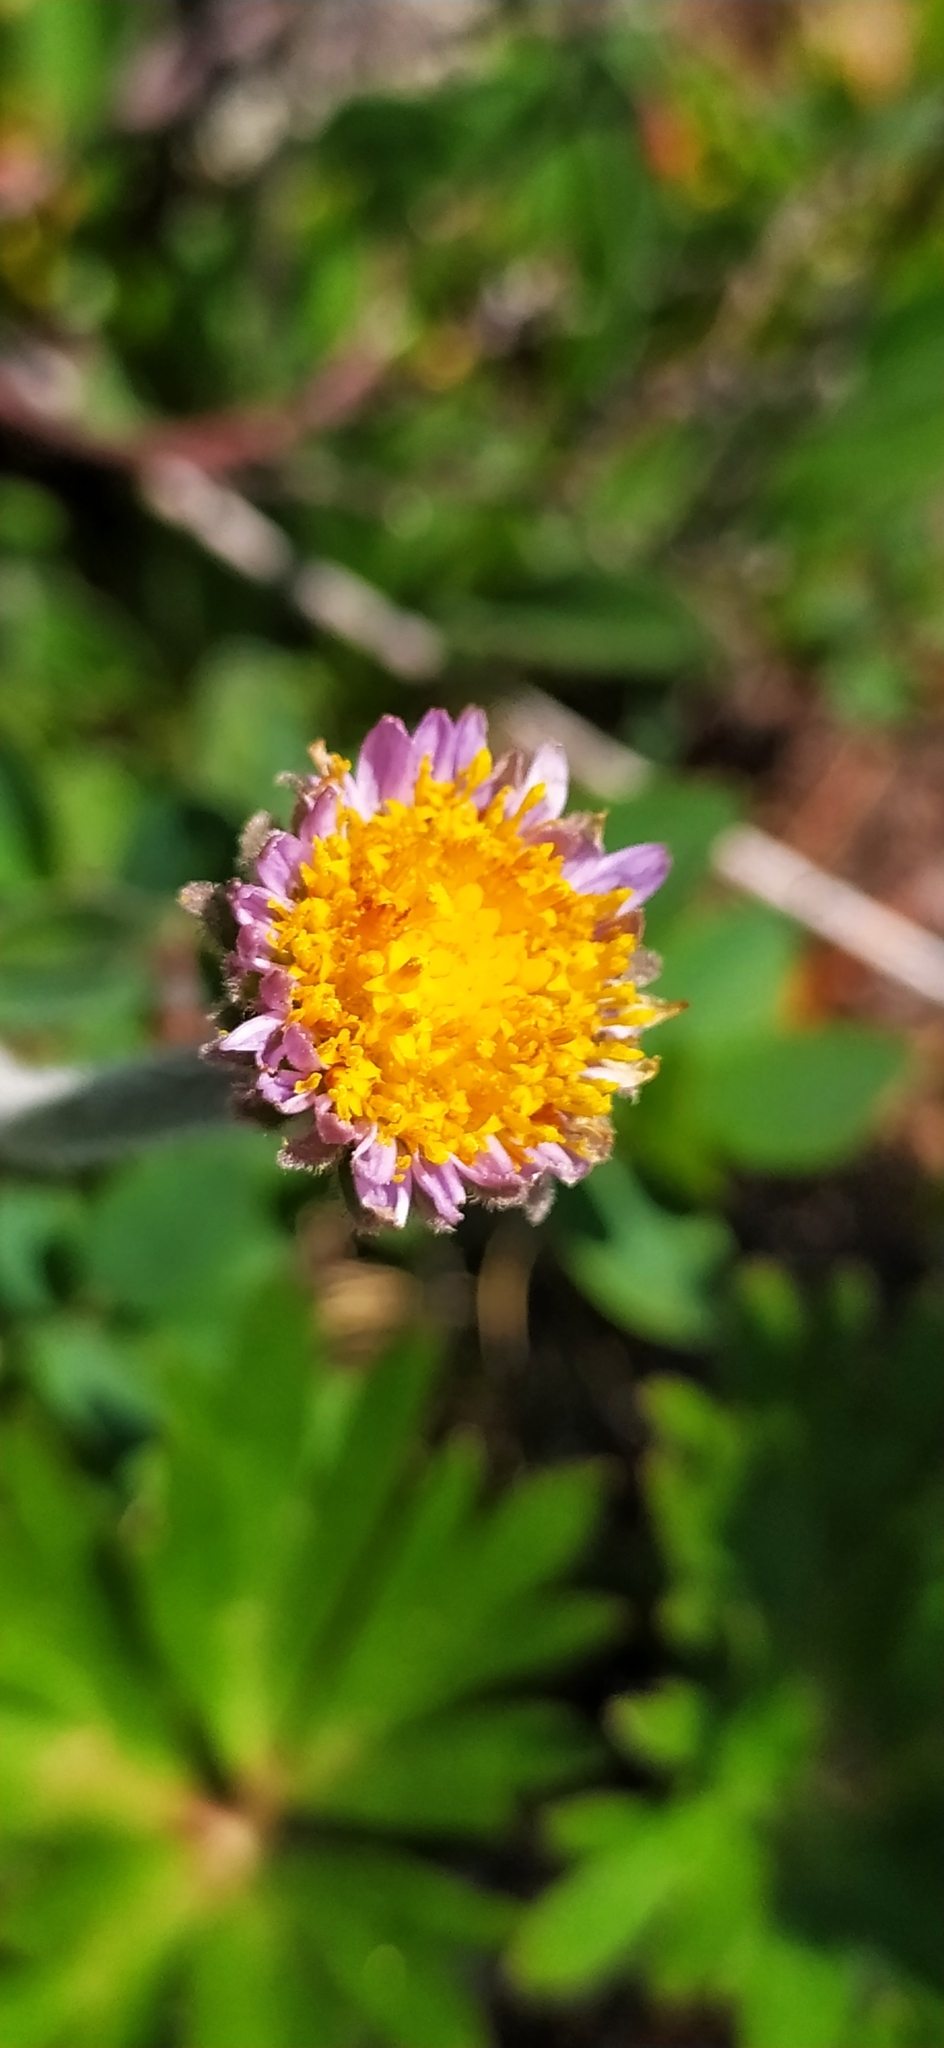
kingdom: Plantae
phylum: Tracheophyta
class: Magnoliopsida
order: Asterales
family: Asteraceae
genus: Aster
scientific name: Aster alpinus
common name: Alpine aster
